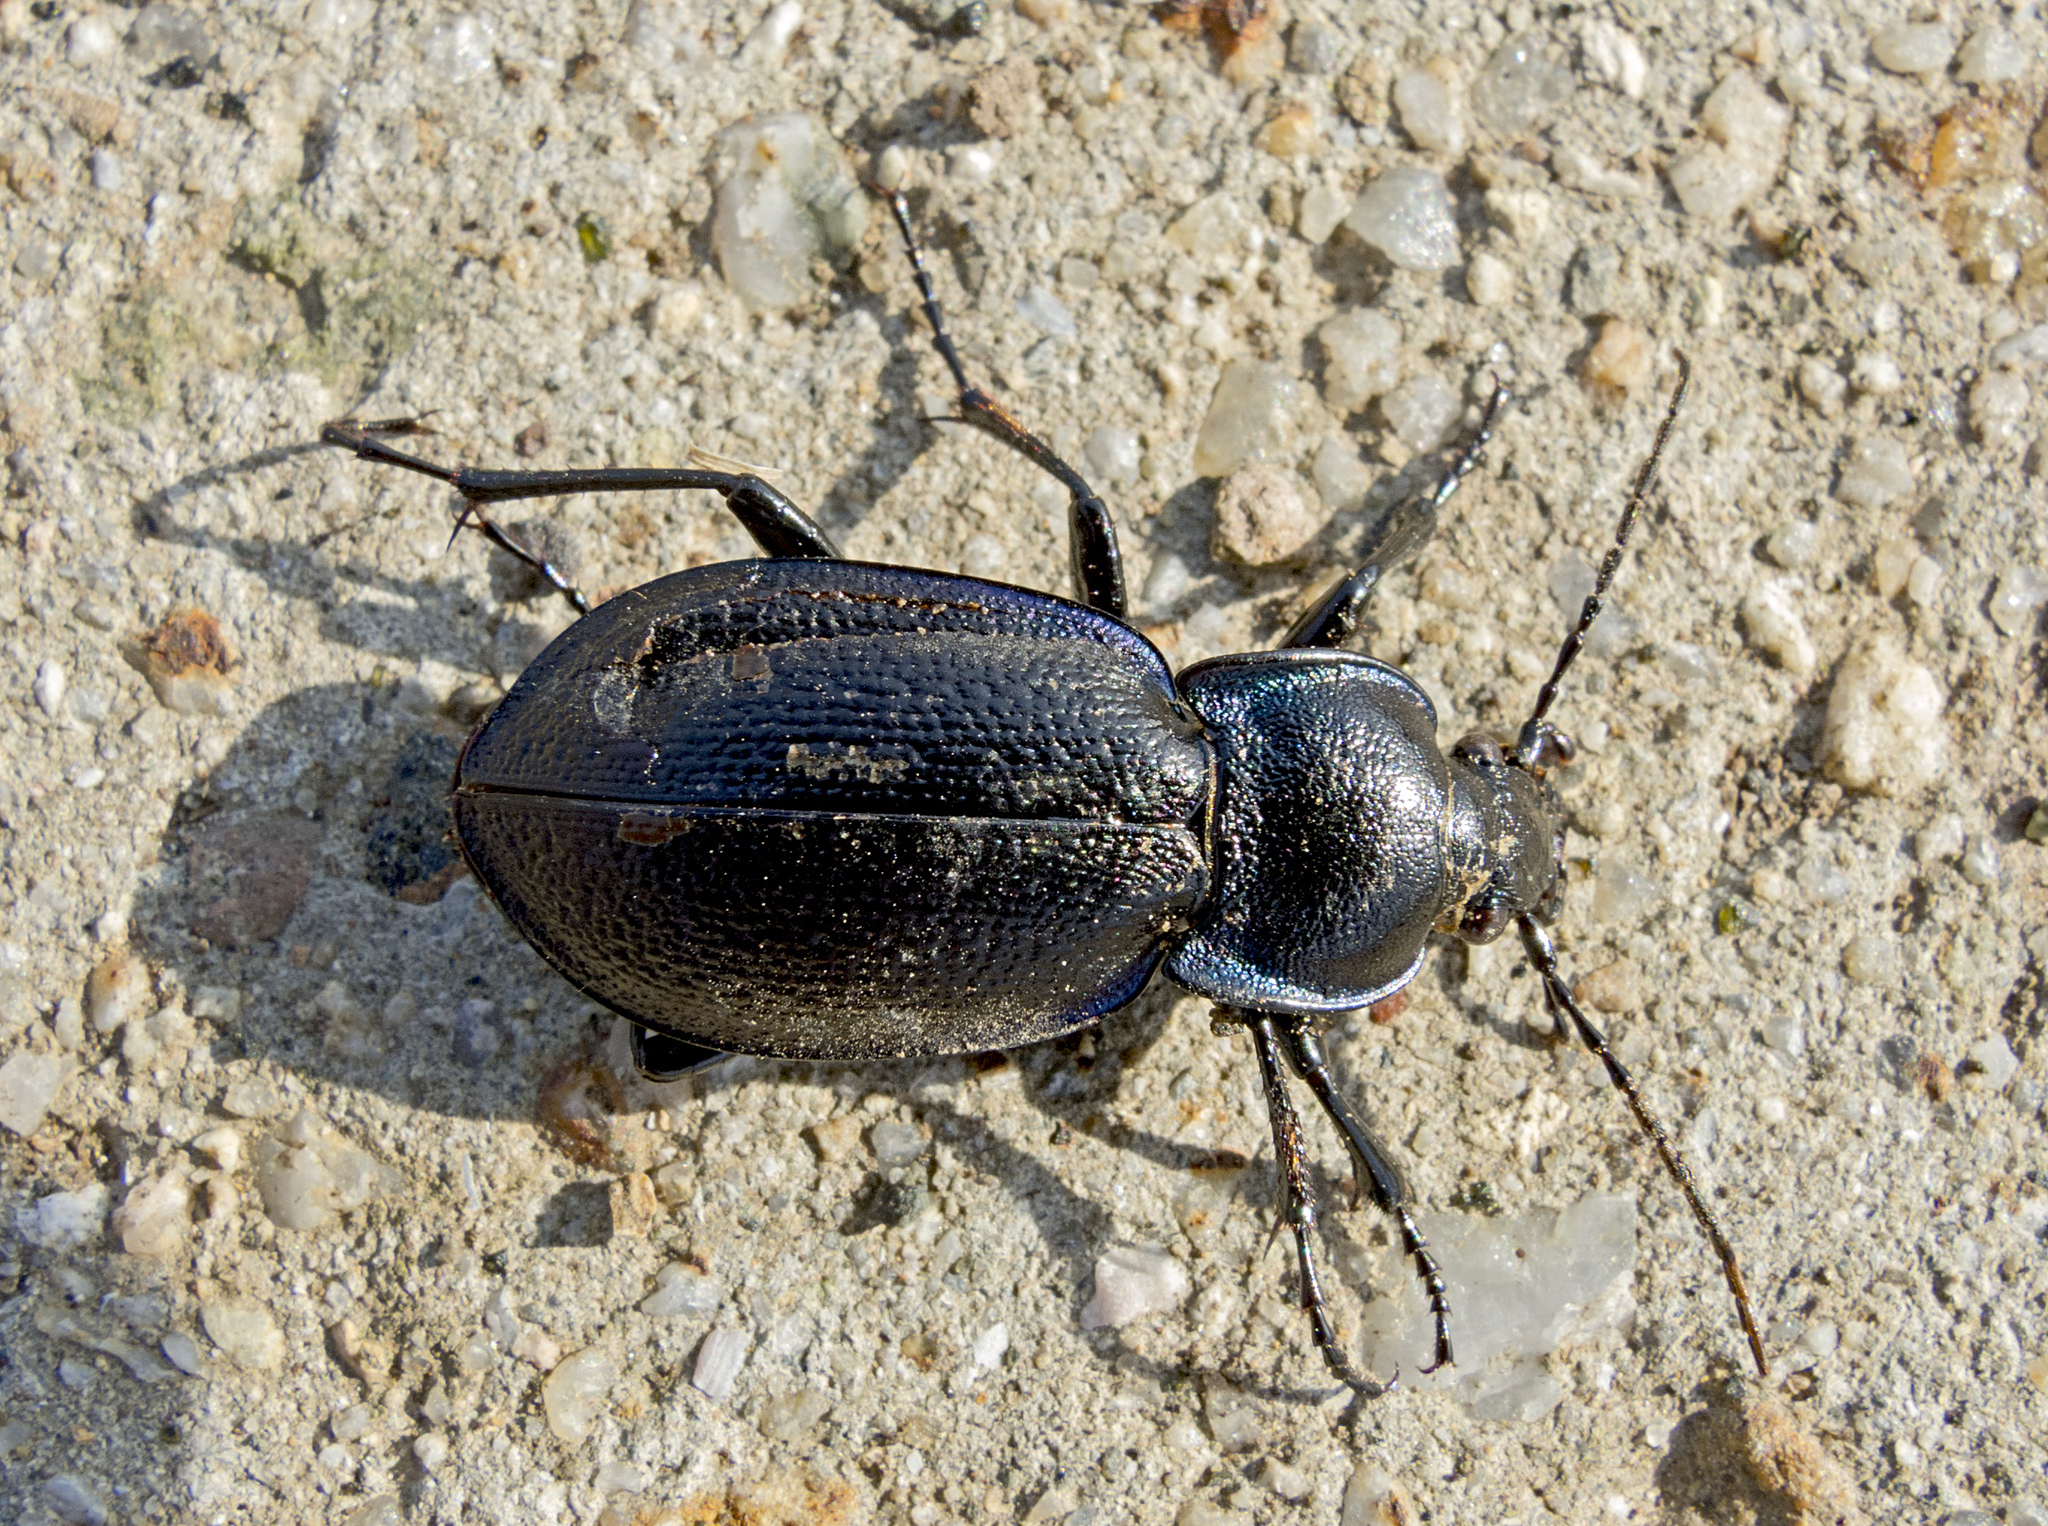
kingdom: Animalia
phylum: Arthropoda
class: Insecta
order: Coleoptera
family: Carabidae
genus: Carabus
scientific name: Carabus wiedemanni
